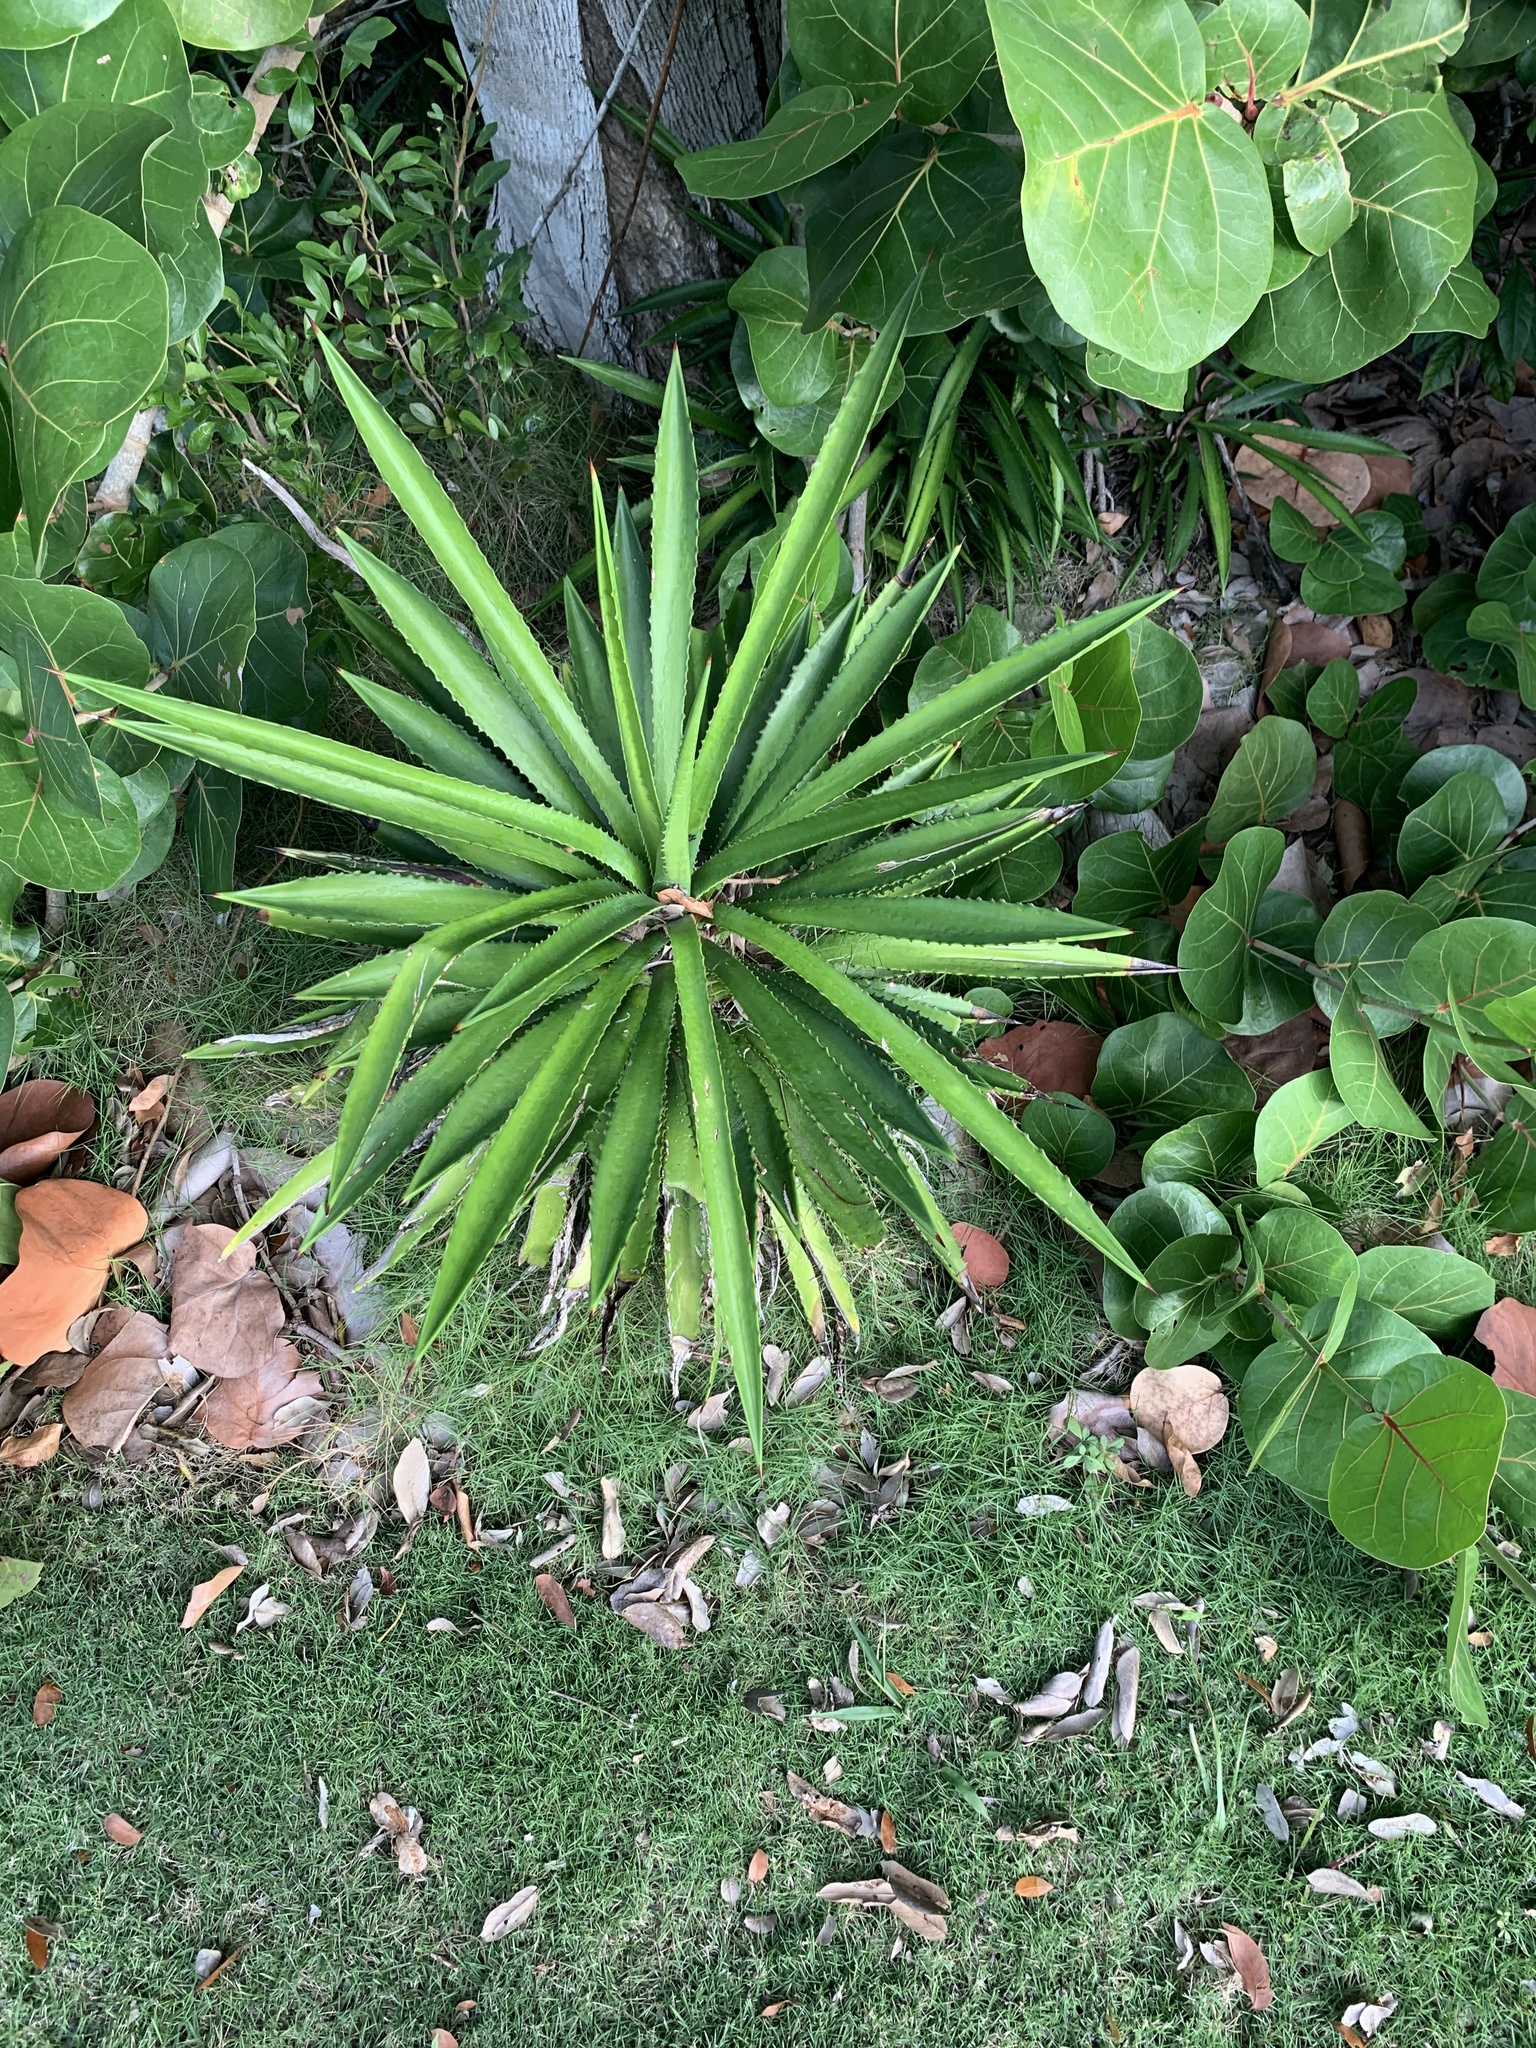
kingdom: Plantae
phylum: Tracheophyta
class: Liliopsida
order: Asparagales
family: Asparagaceae
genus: Agave
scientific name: Agave decipiens
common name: False sisal
